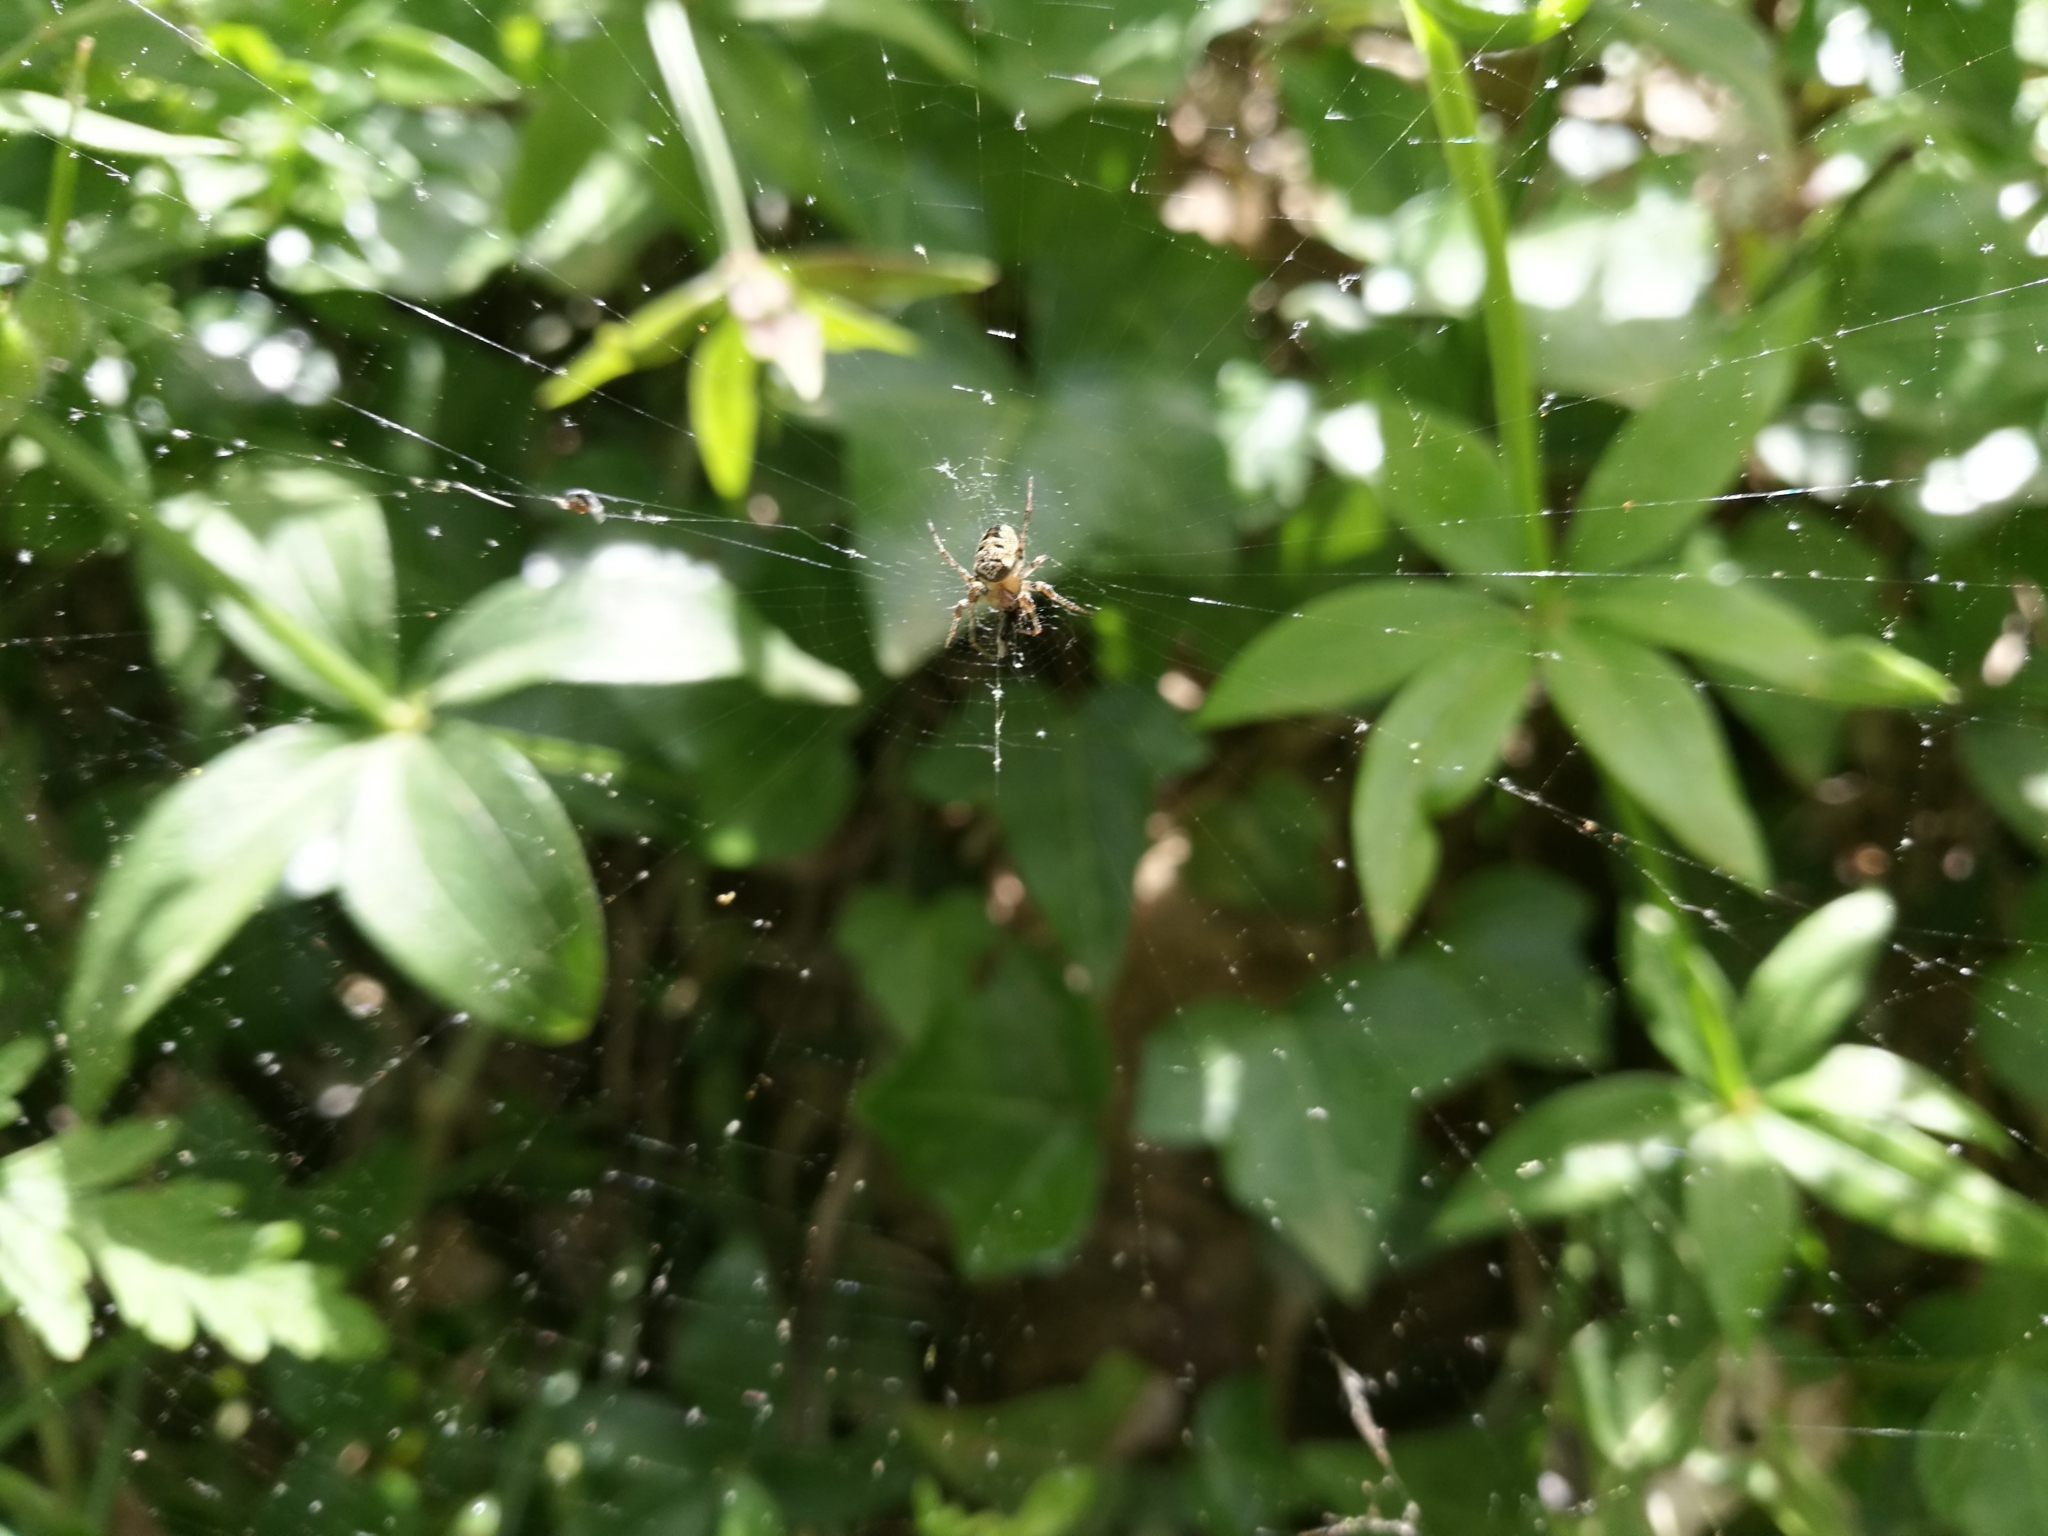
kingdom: Animalia
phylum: Arthropoda
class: Arachnida
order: Araneae
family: Araneidae
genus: Zilla
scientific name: Zilla diodia
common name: Zilla diodia
